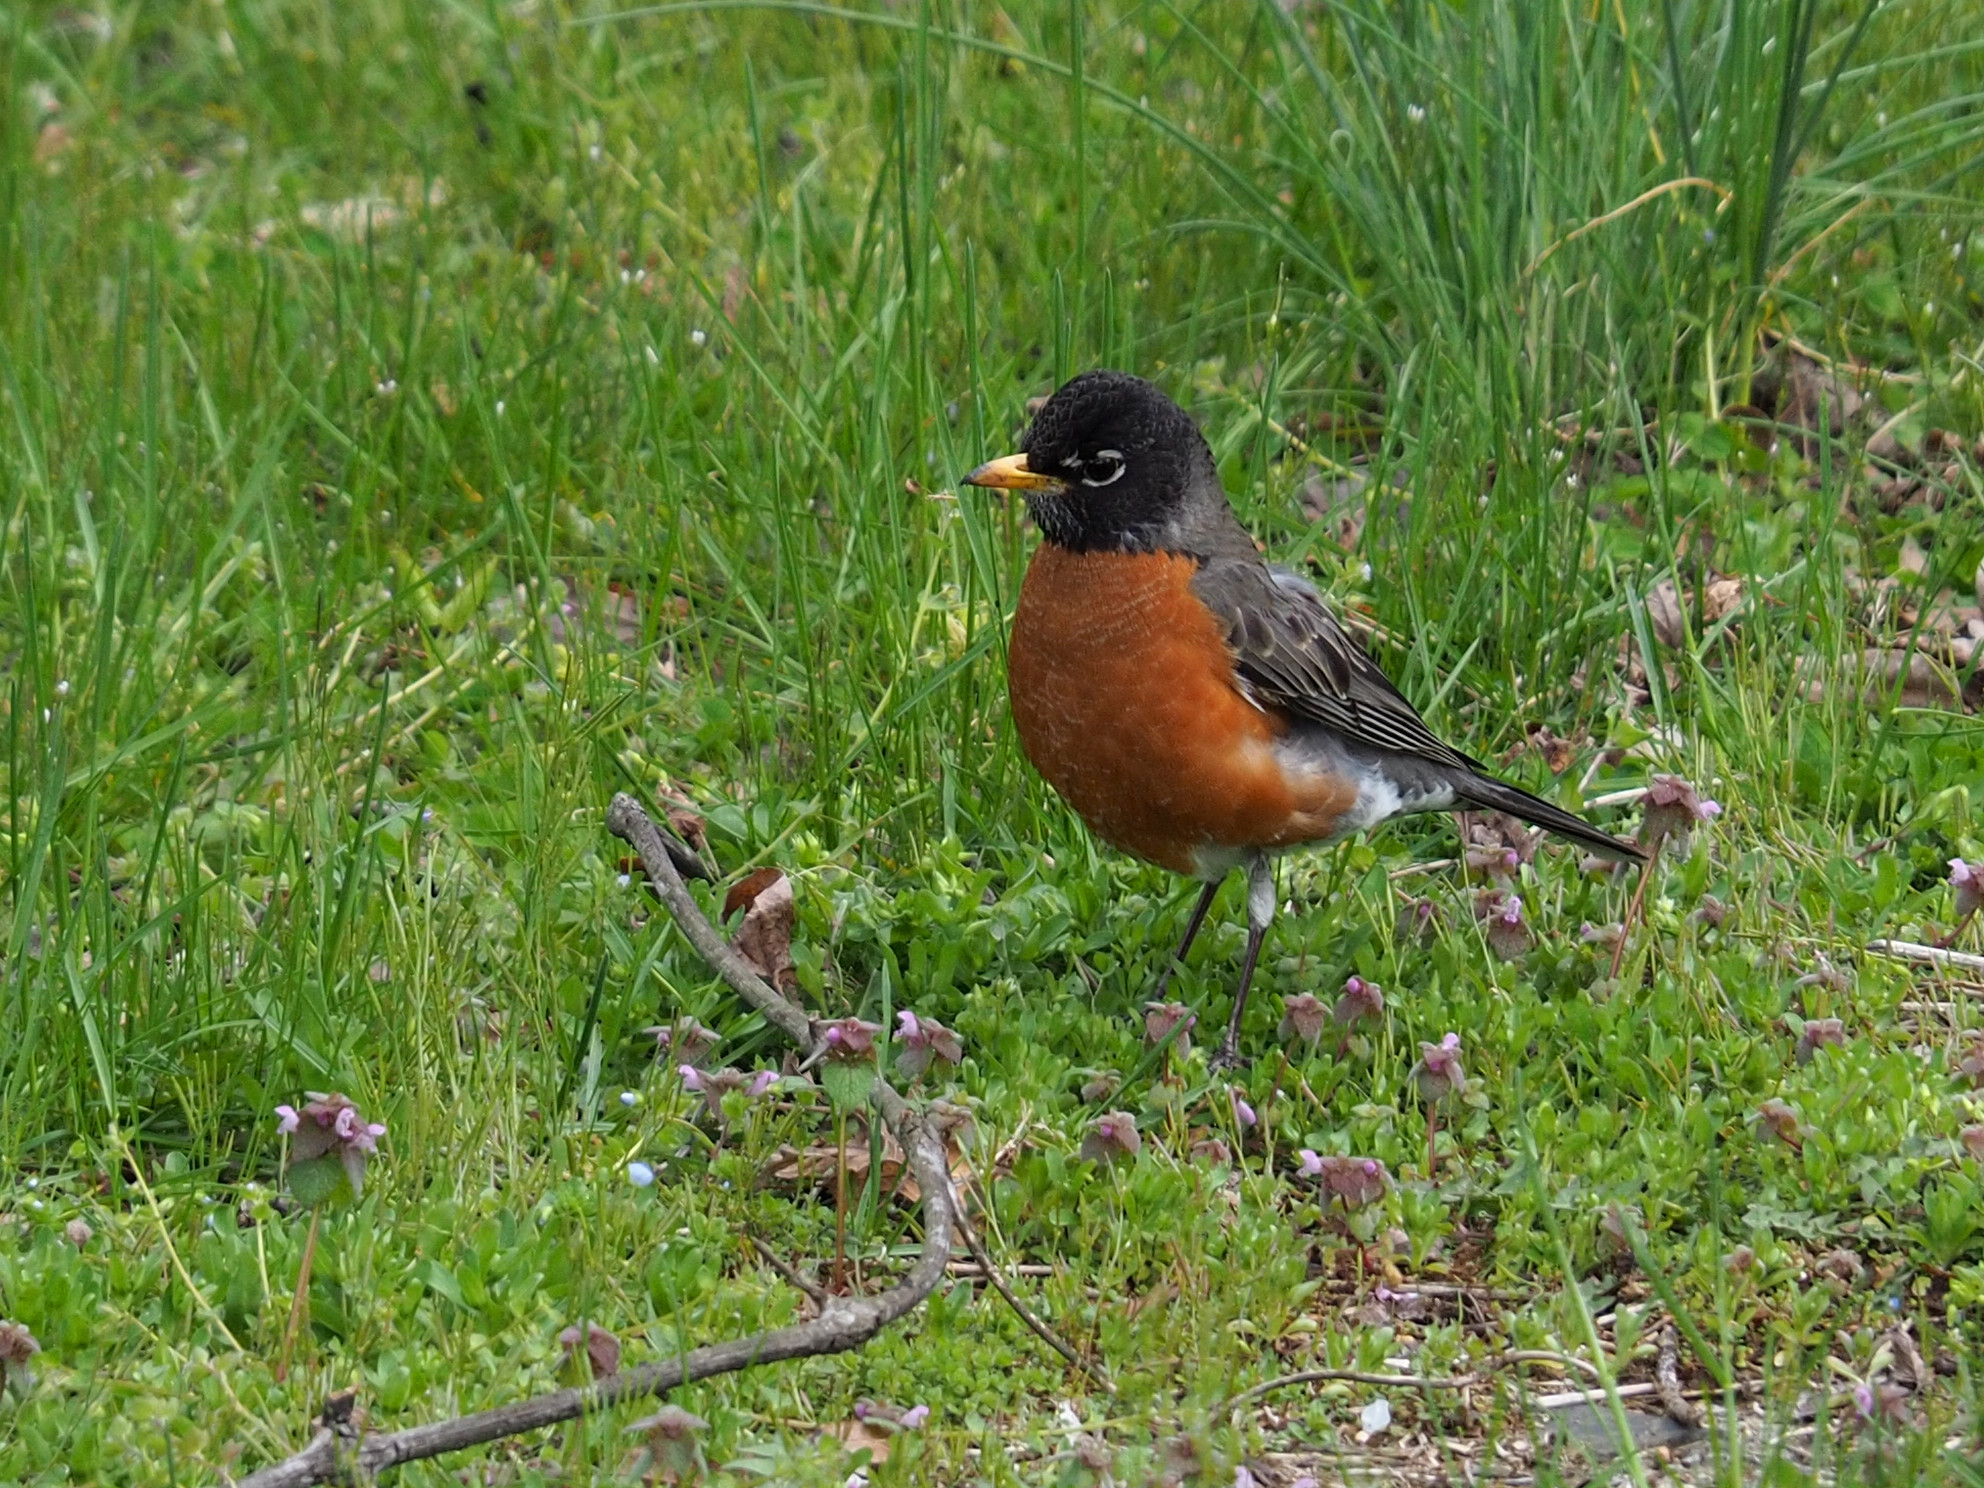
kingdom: Animalia
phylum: Chordata
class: Aves
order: Passeriformes
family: Turdidae
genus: Turdus
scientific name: Turdus migratorius
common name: American robin
